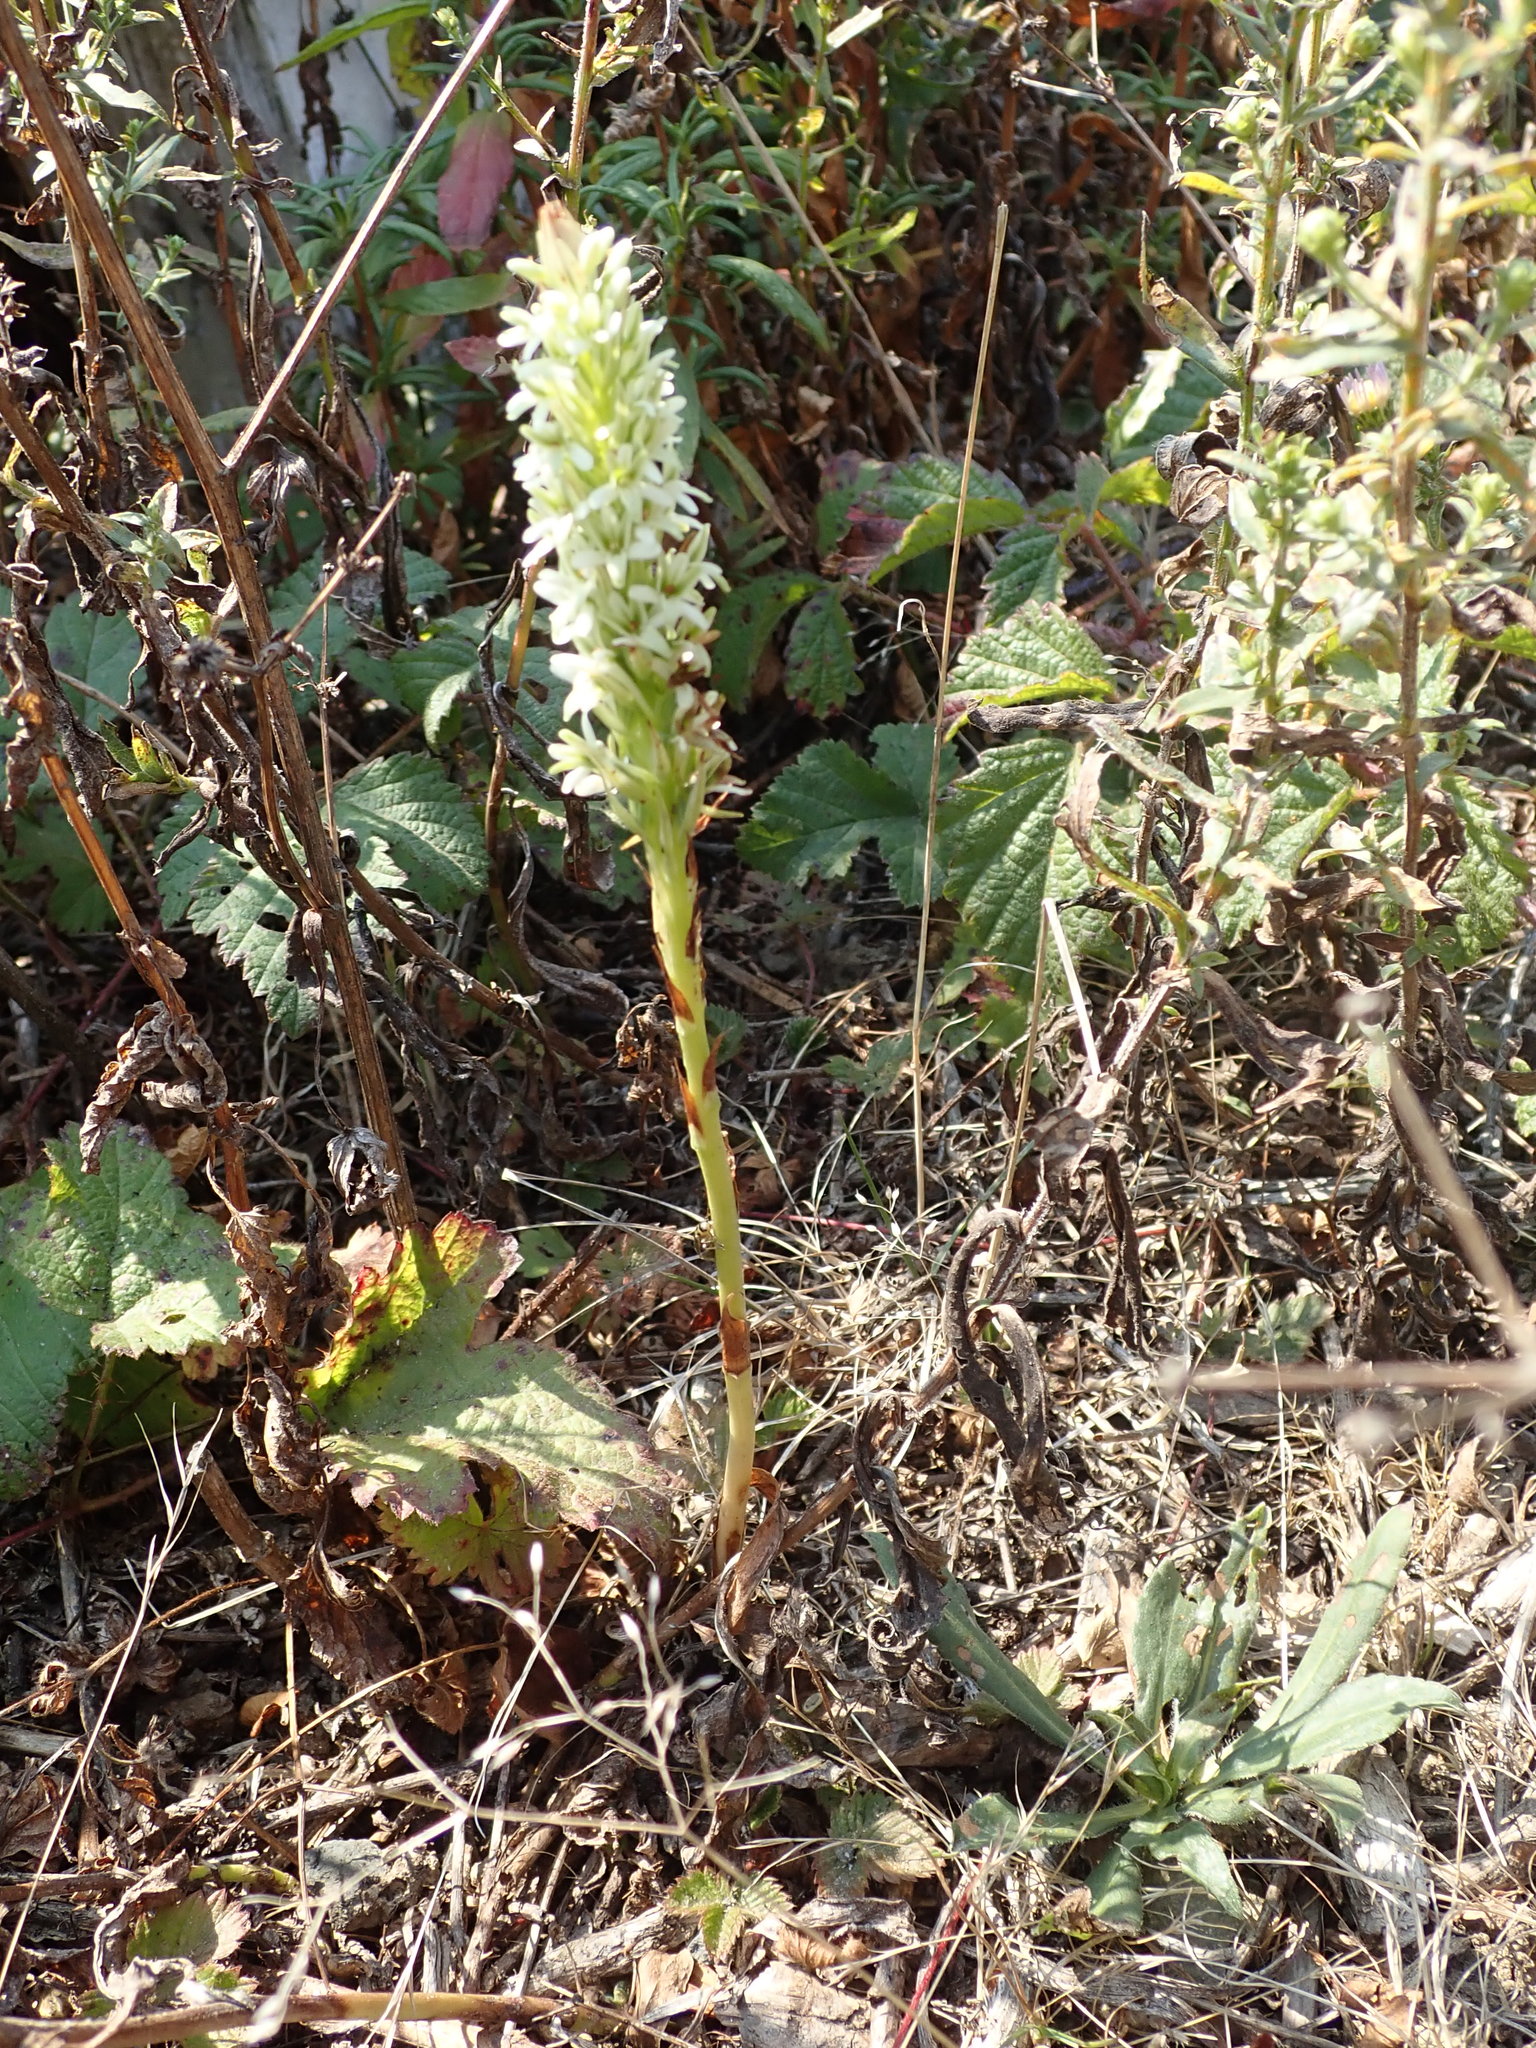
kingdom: Plantae
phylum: Tracheophyta
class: Liliopsida
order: Asparagales
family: Orchidaceae
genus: Platanthera
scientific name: Platanthera elegans
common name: Coast piperia
